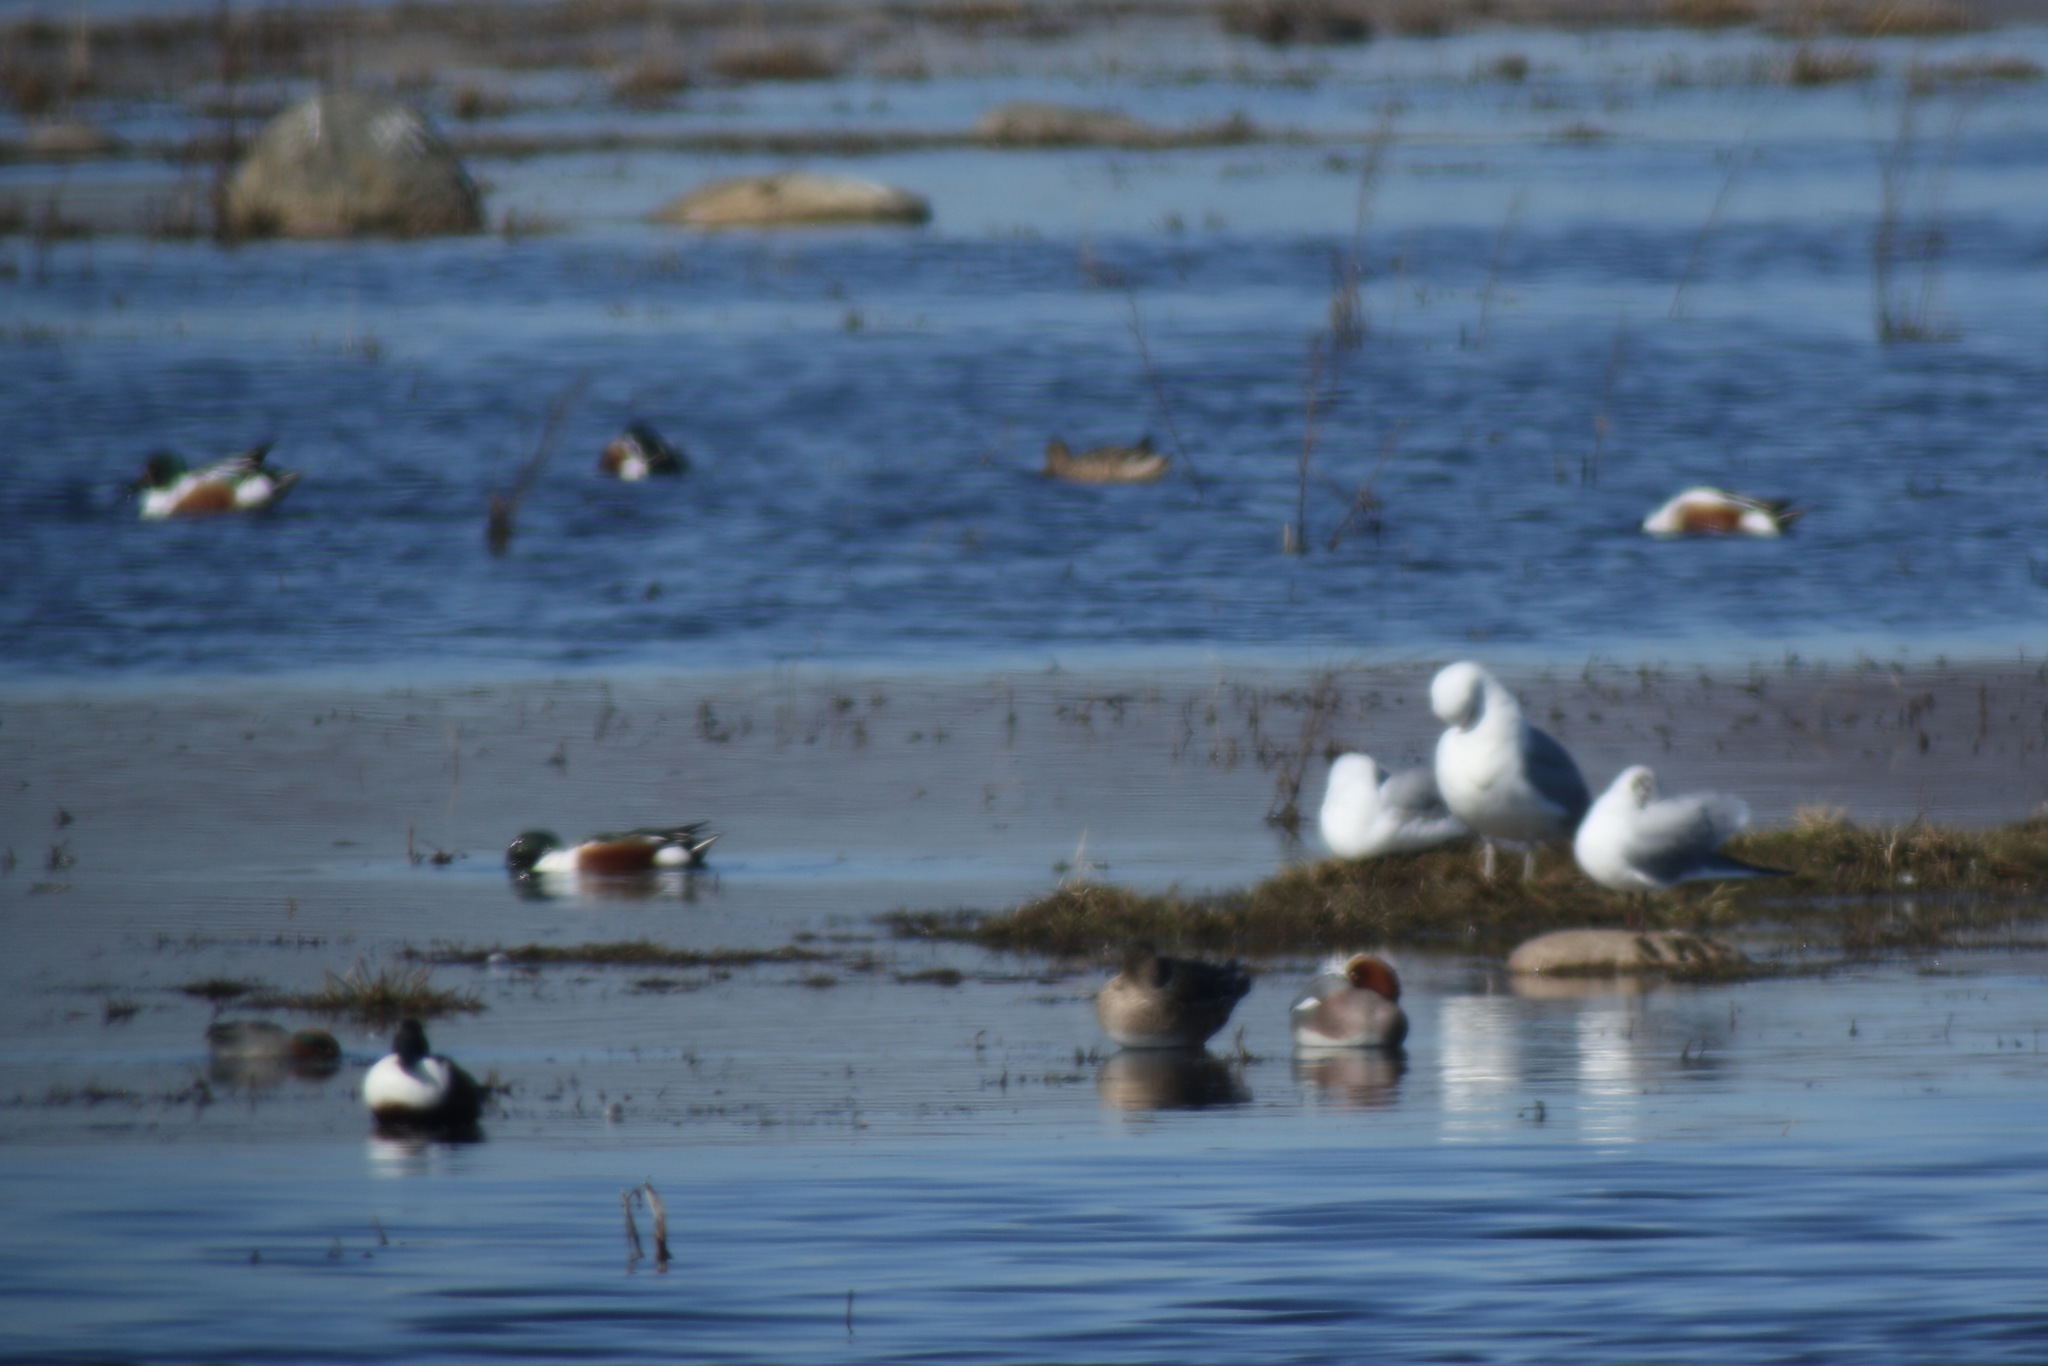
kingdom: Animalia
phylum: Chordata
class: Aves
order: Anseriformes
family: Anatidae
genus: Mareca
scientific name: Mareca penelope
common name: Eurasian wigeon
